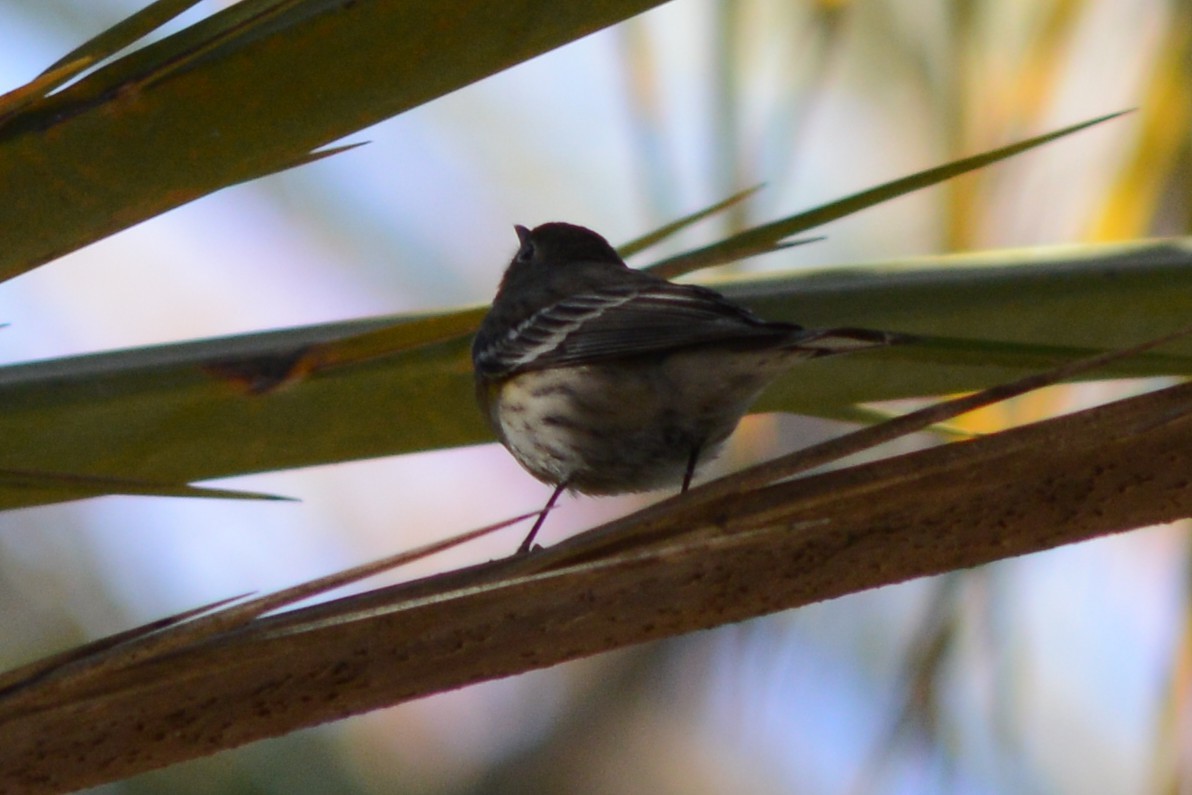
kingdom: Animalia
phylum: Chordata
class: Aves
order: Passeriformes
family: Parulidae
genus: Setophaga
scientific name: Setophaga coronata
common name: Myrtle warbler
